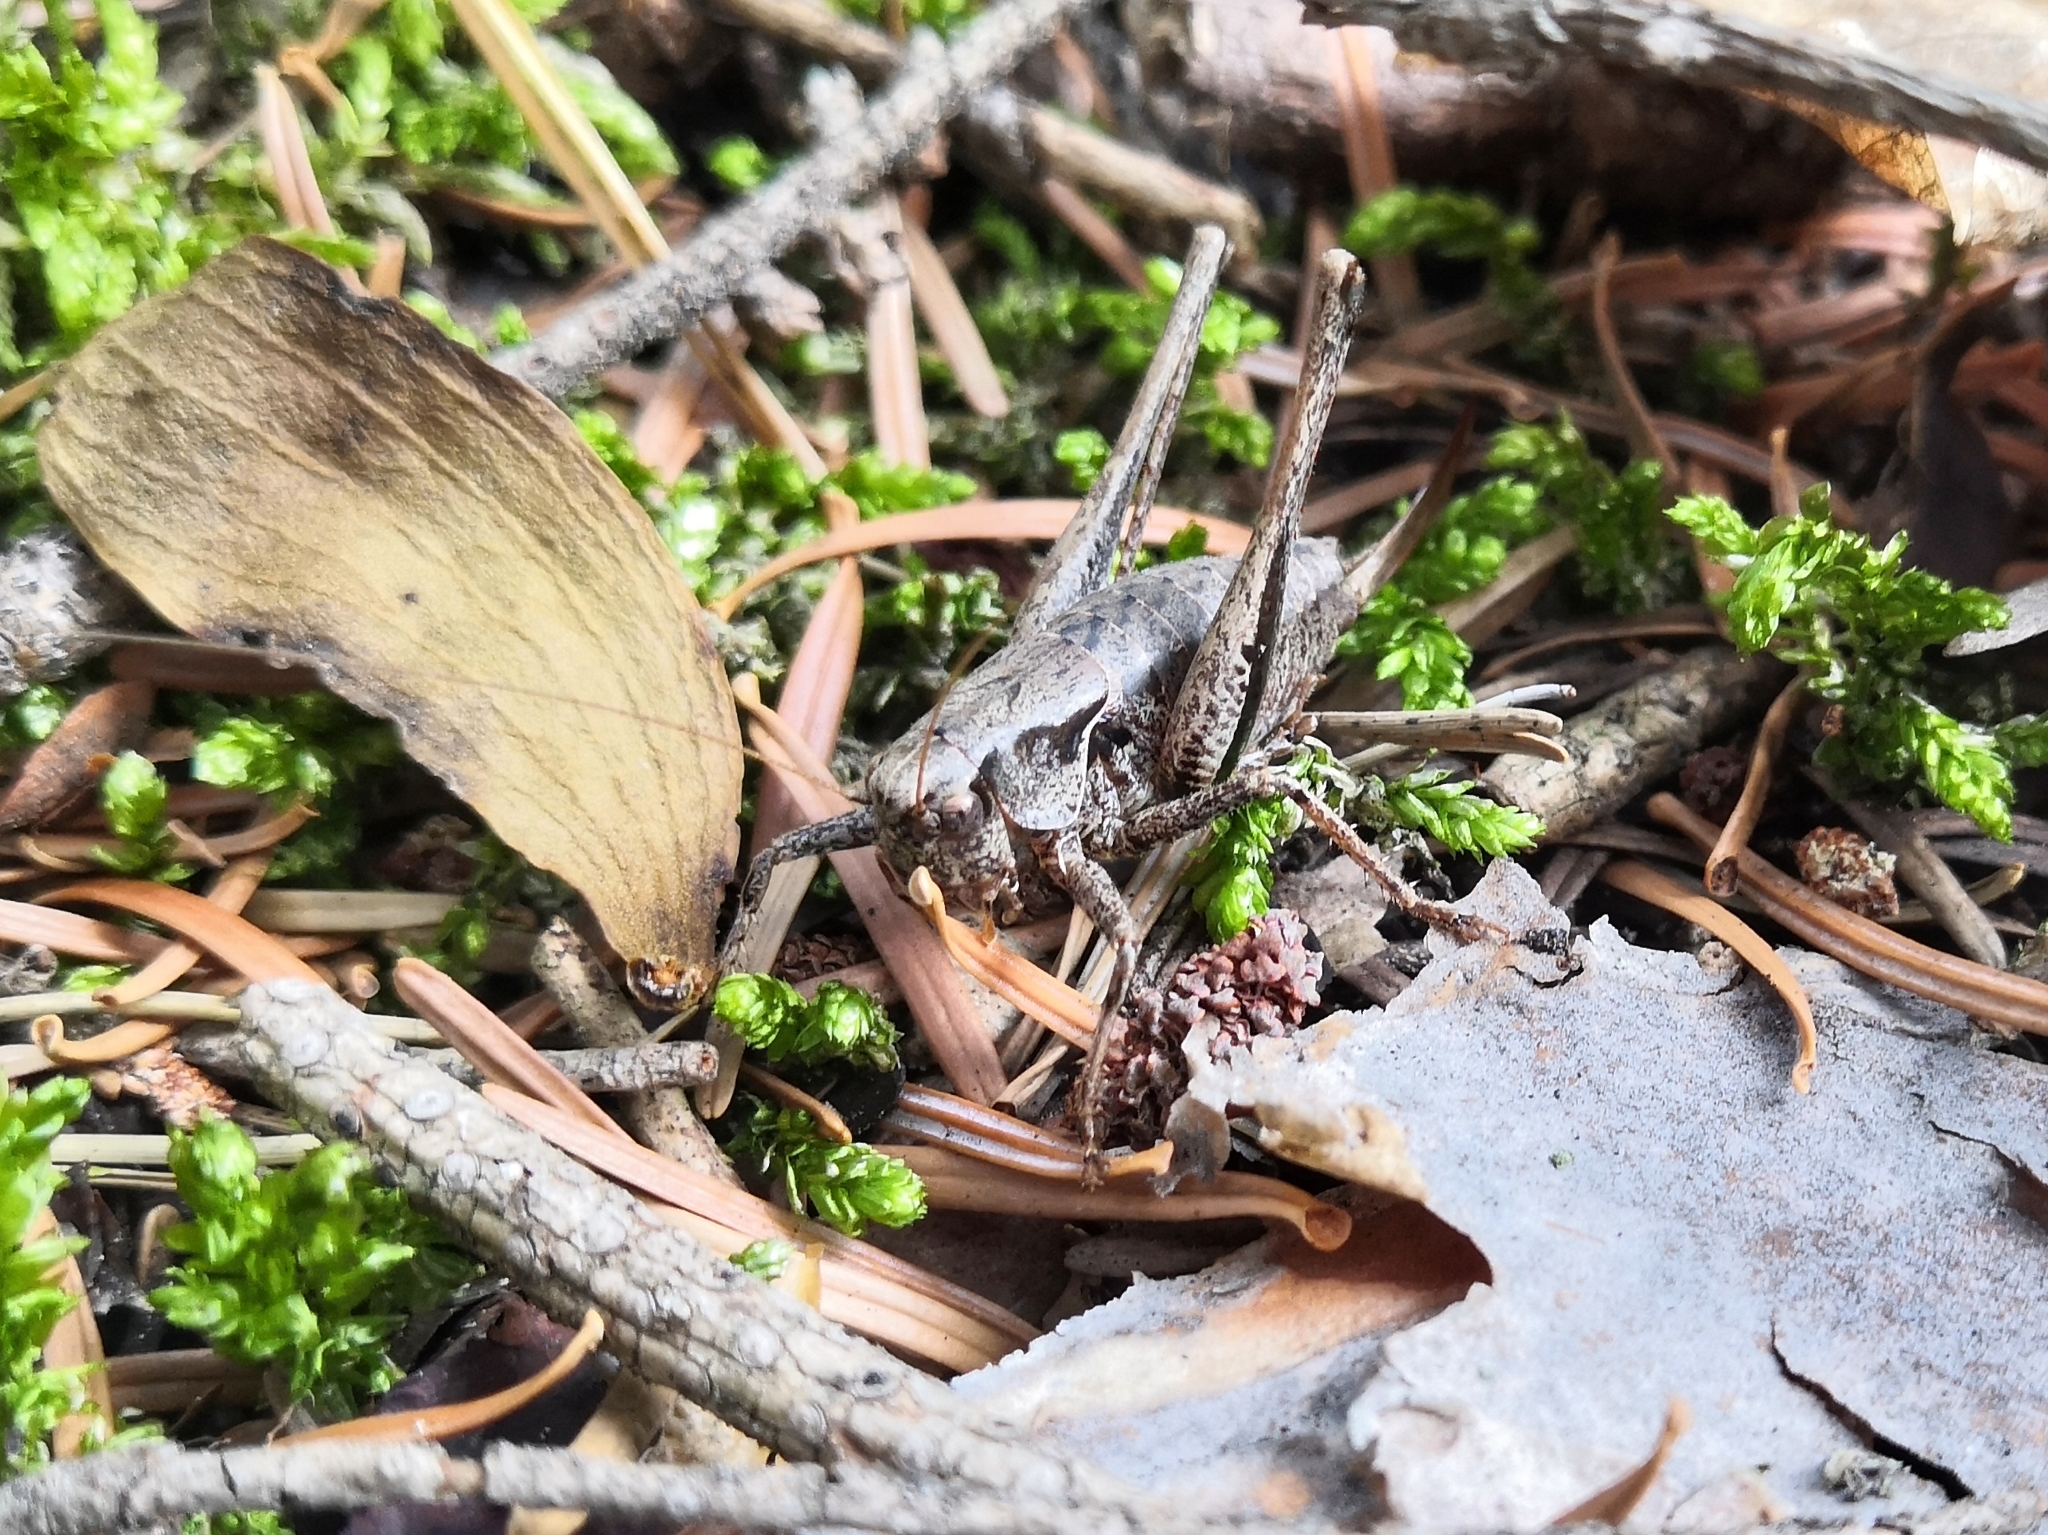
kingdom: Animalia
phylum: Arthropoda
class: Insecta
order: Orthoptera
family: Tettigoniidae
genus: Pholidoptera
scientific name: Pholidoptera griseoaptera
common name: Dark bush-cricket
